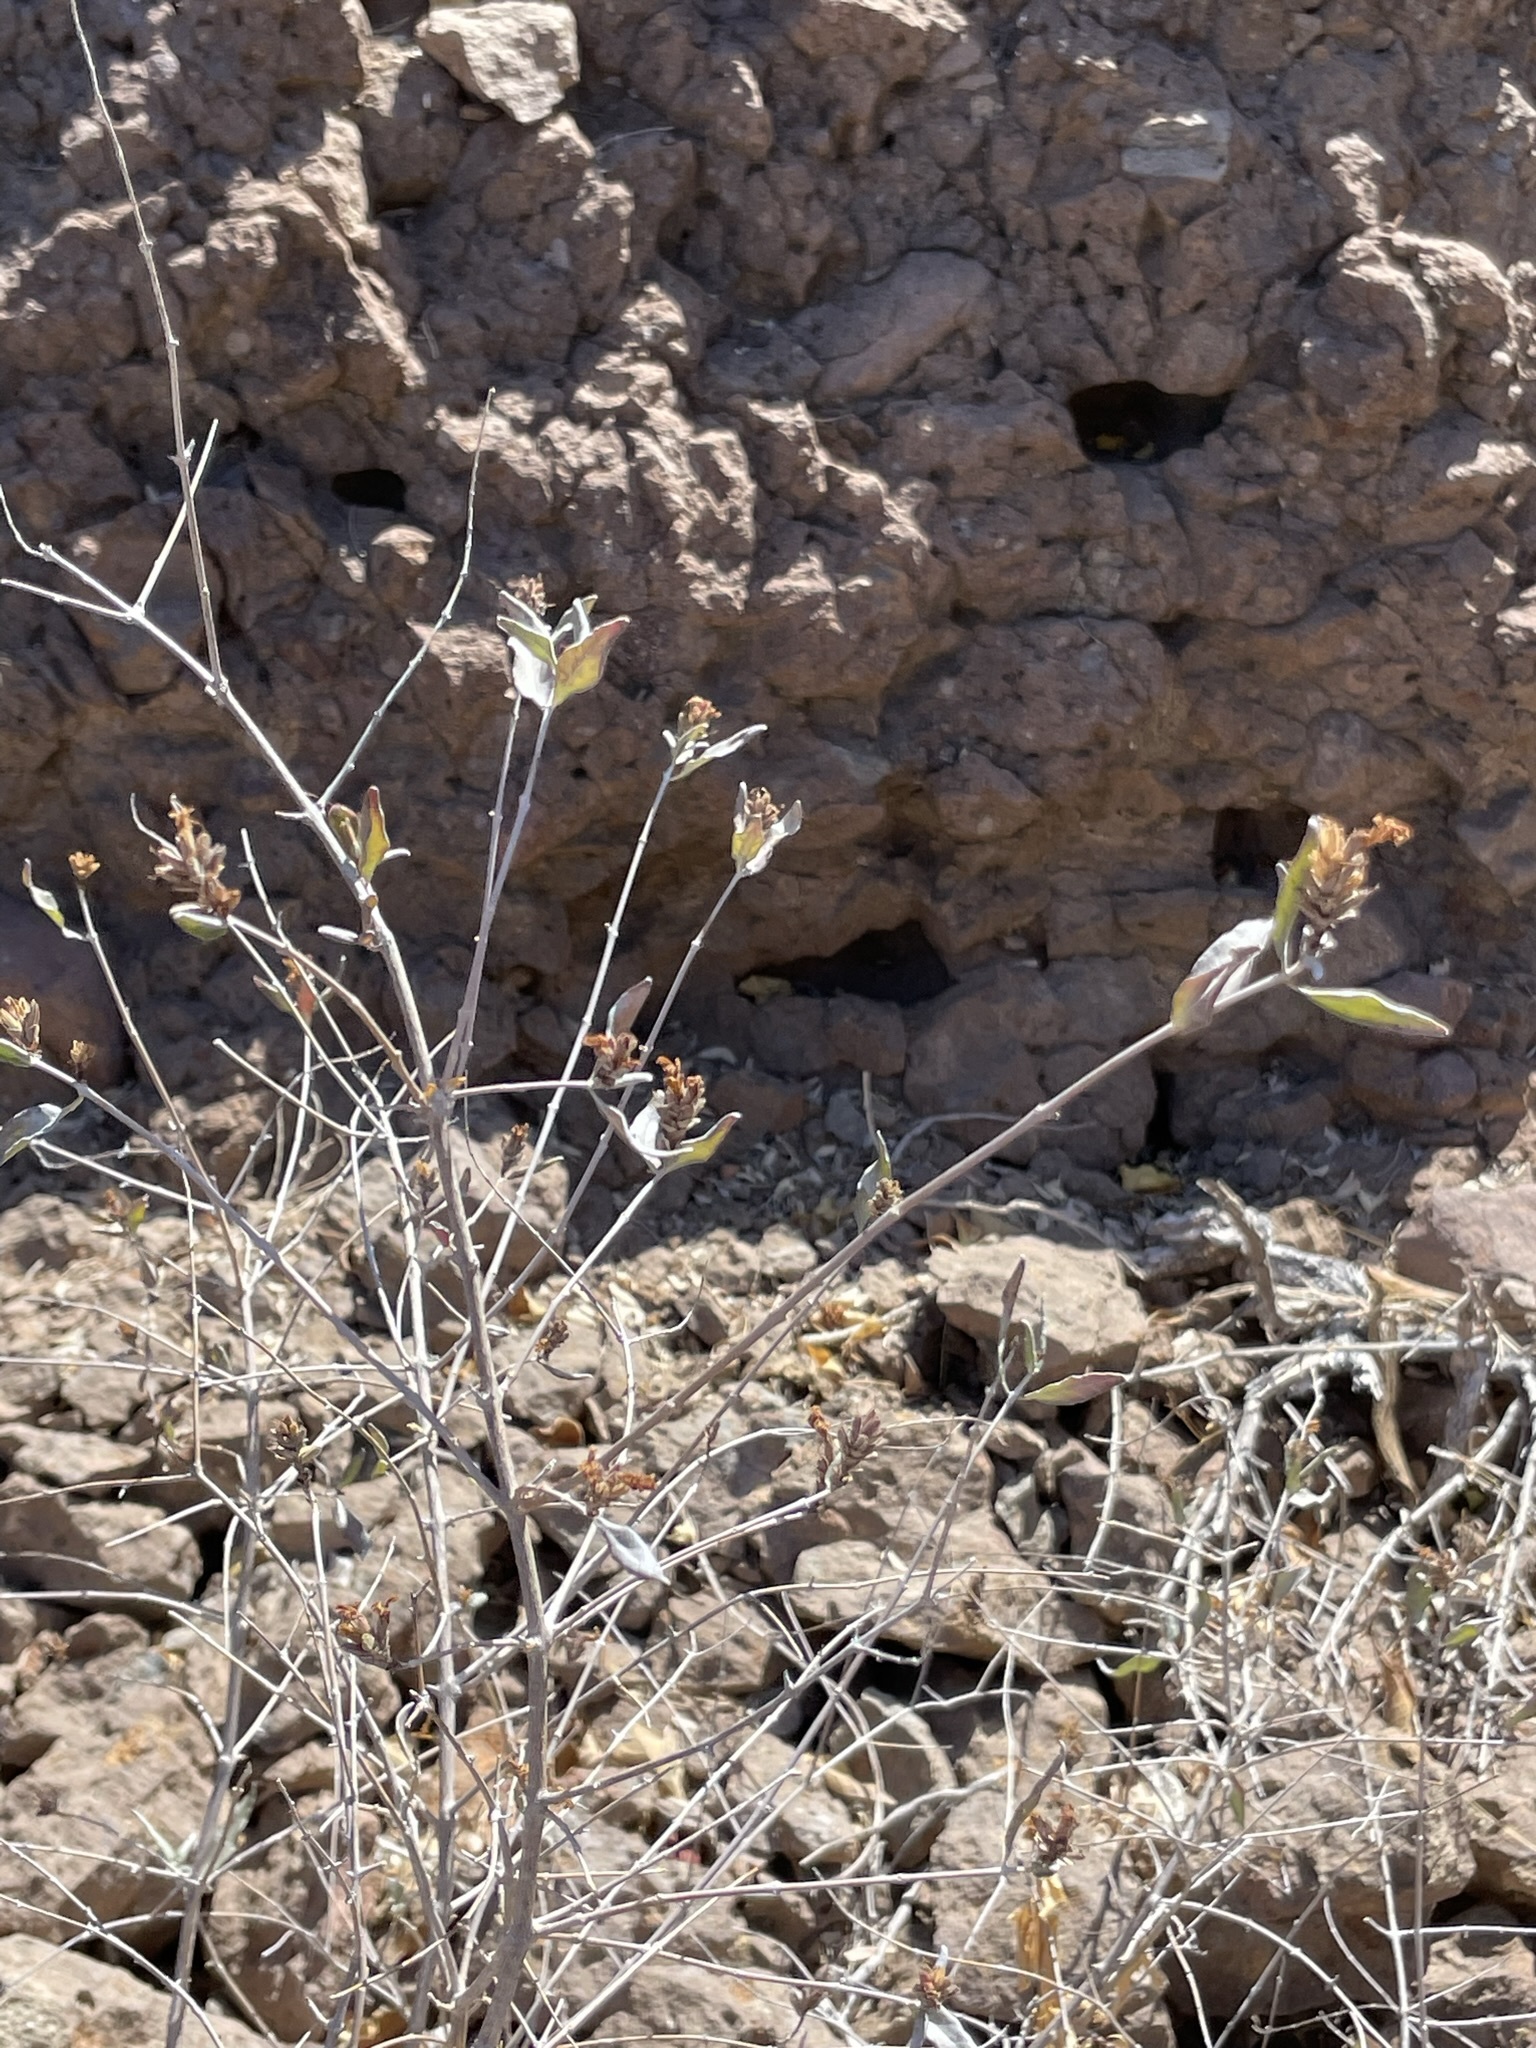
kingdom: Plantae
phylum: Tracheophyta
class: Magnoliopsida
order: Lamiales
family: Acanthaceae
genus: Holographis
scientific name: Holographis virgata
